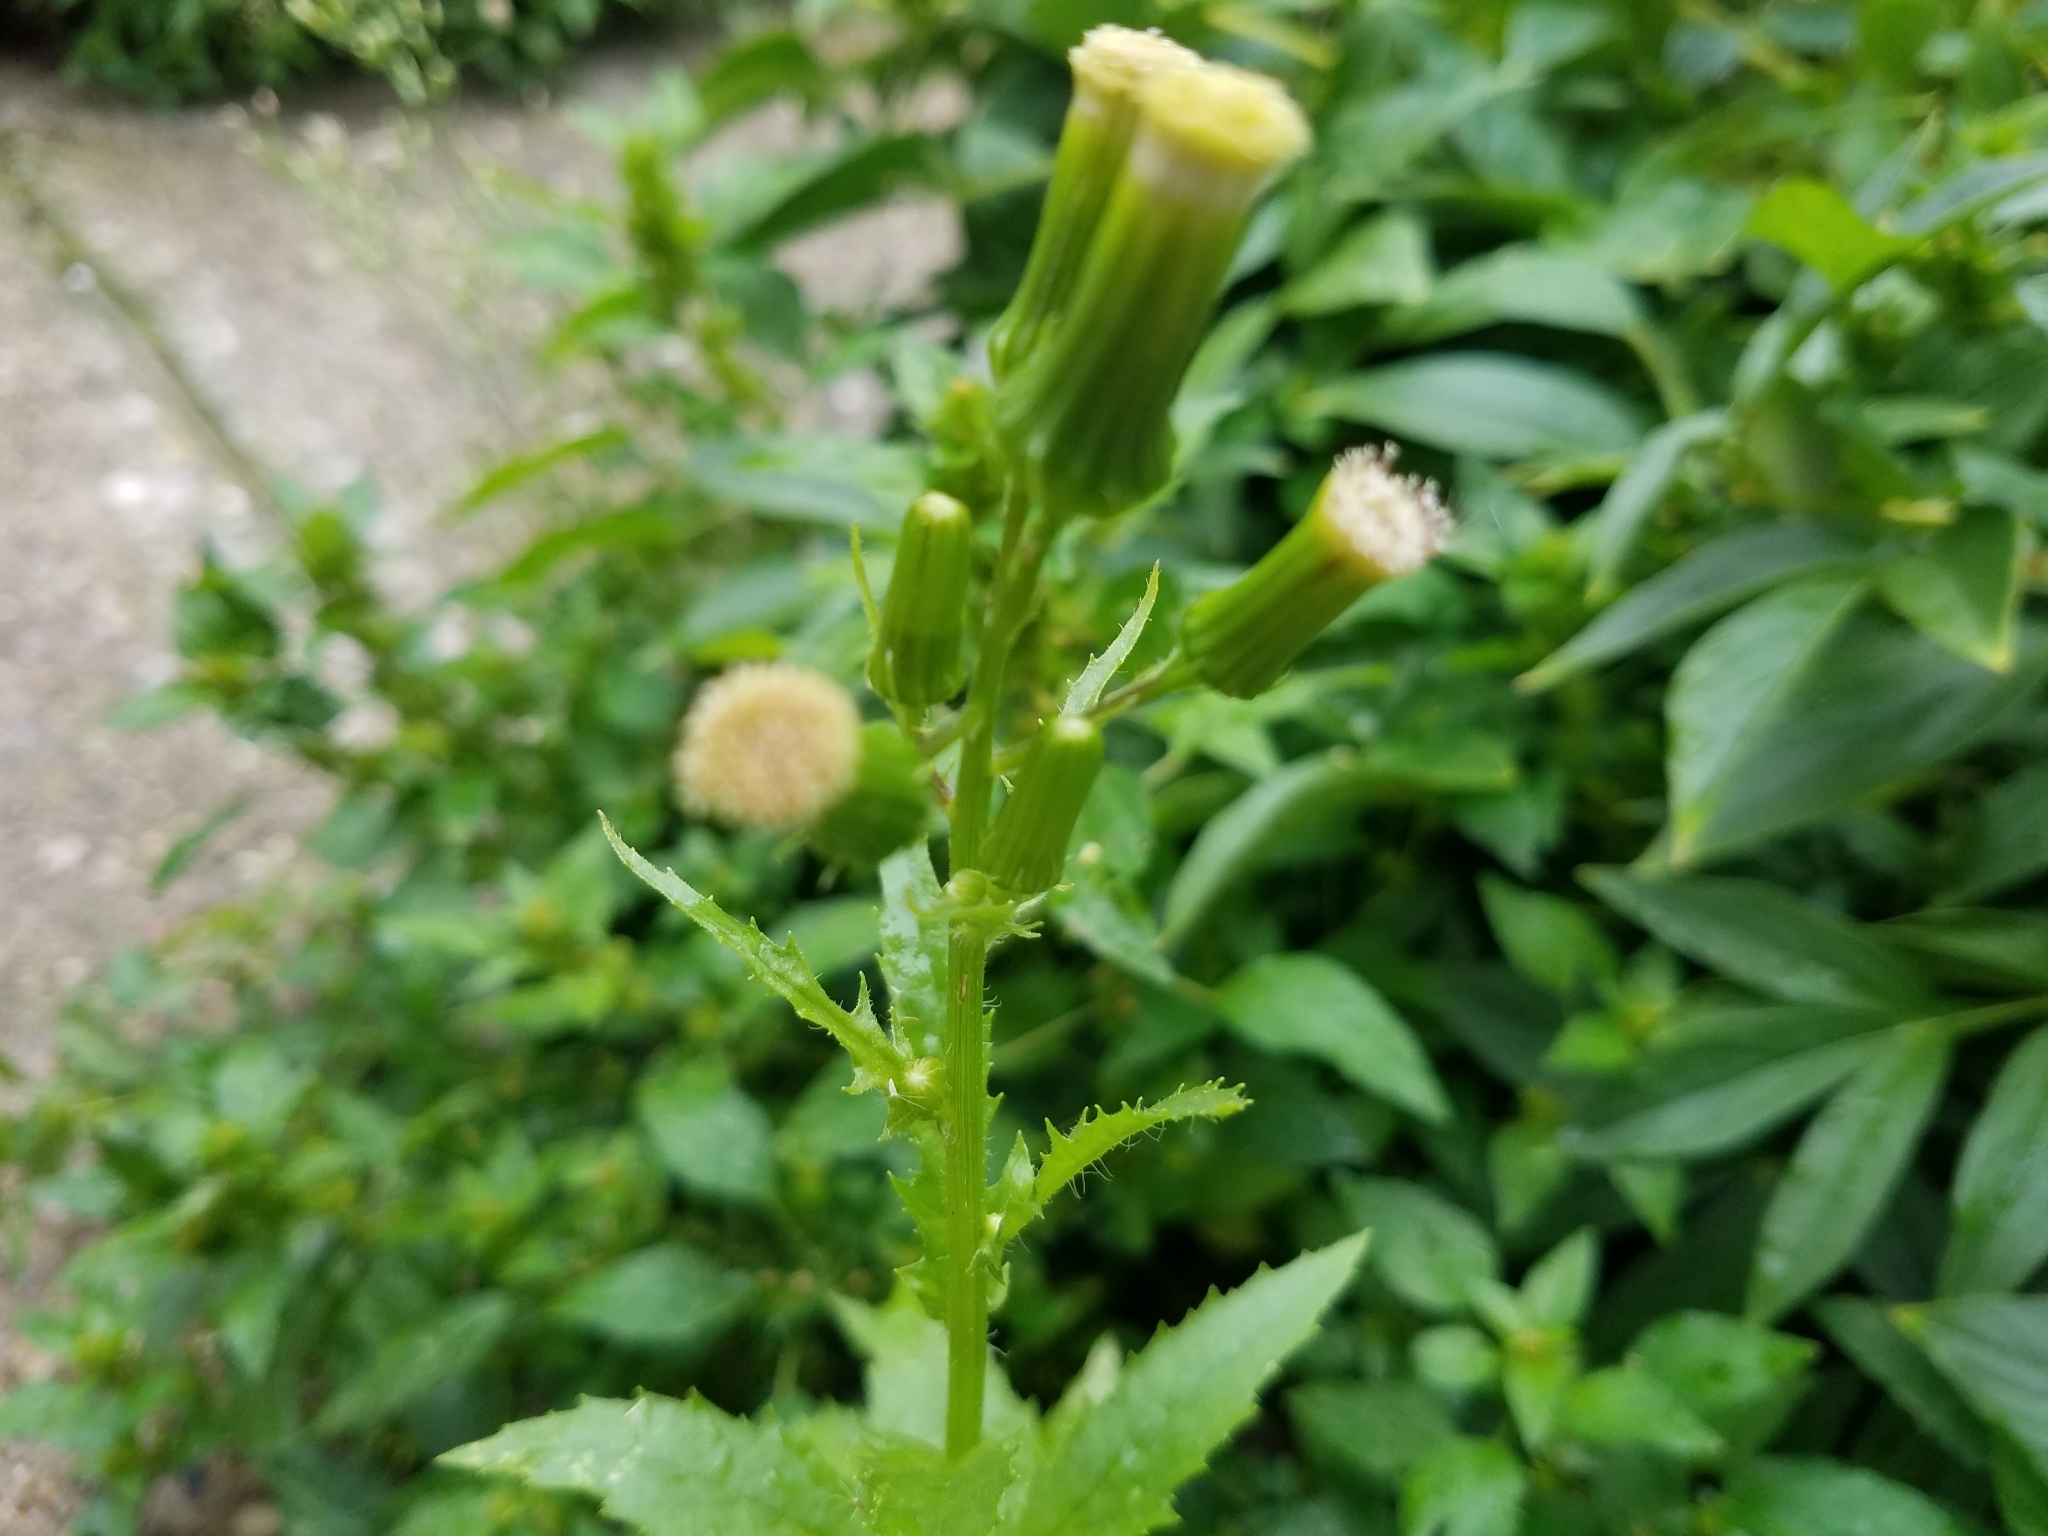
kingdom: Plantae
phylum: Tracheophyta
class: Magnoliopsida
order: Asterales
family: Asteraceae
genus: Erechtites
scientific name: Erechtites hieraciifolius
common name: American burnweed
